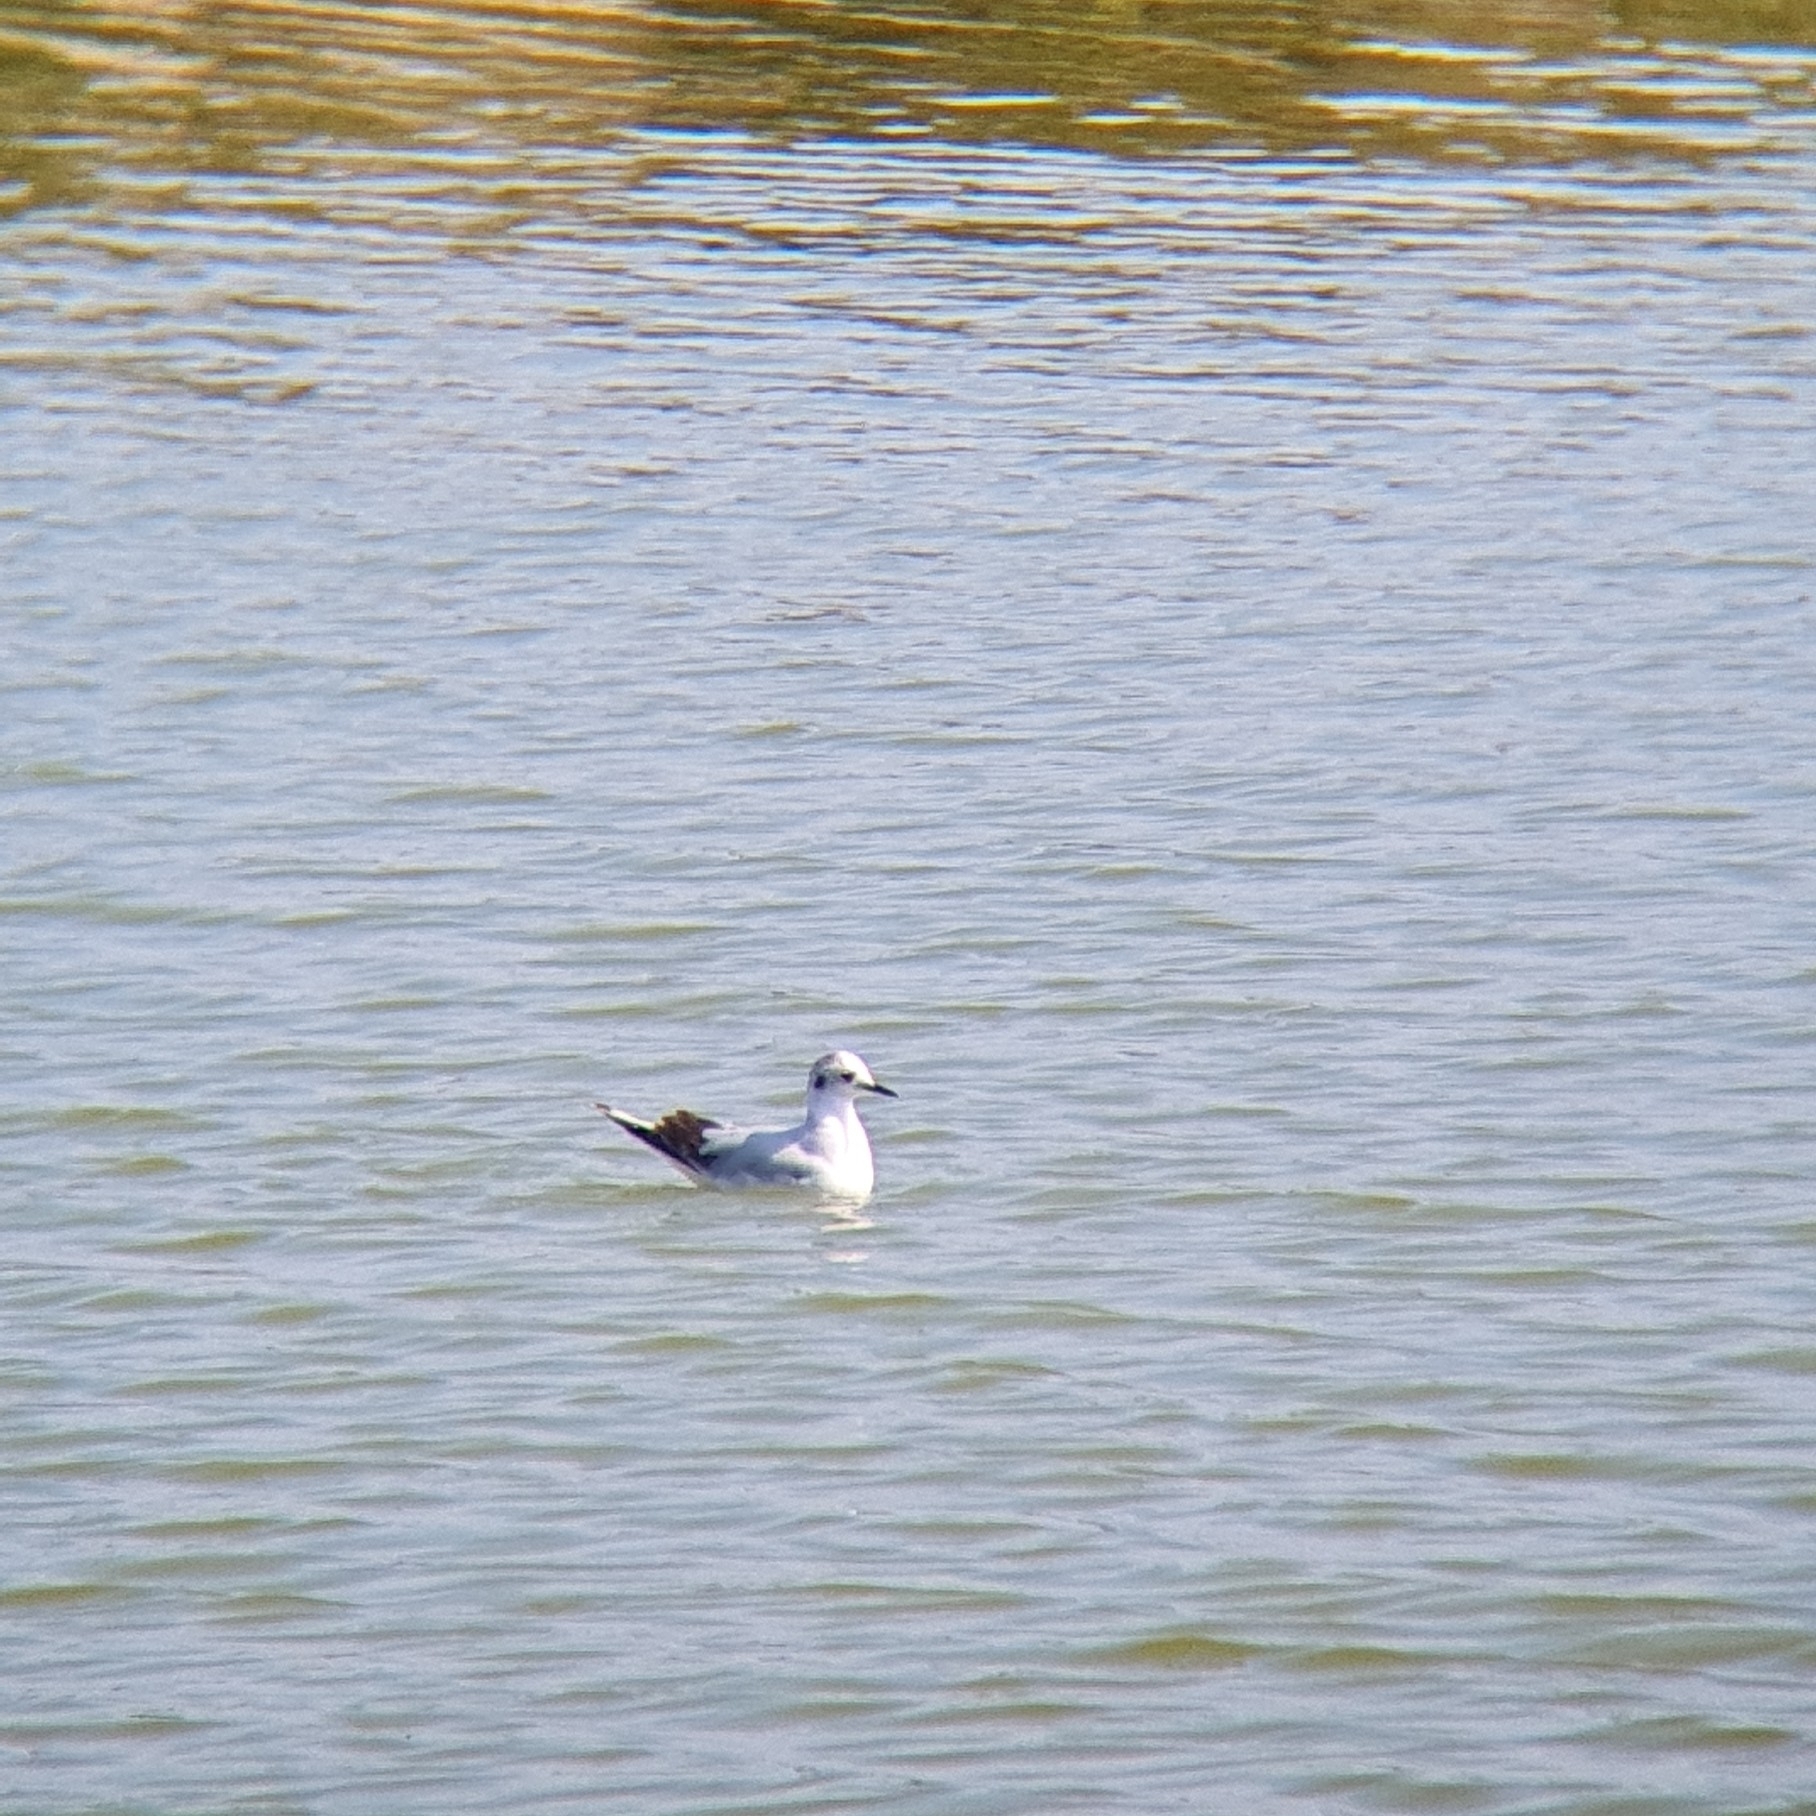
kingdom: Animalia
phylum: Chordata
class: Aves
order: Charadriiformes
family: Laridae
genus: Hydrocoloeus
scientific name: Hydrocoloeus minutus
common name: Little gull
